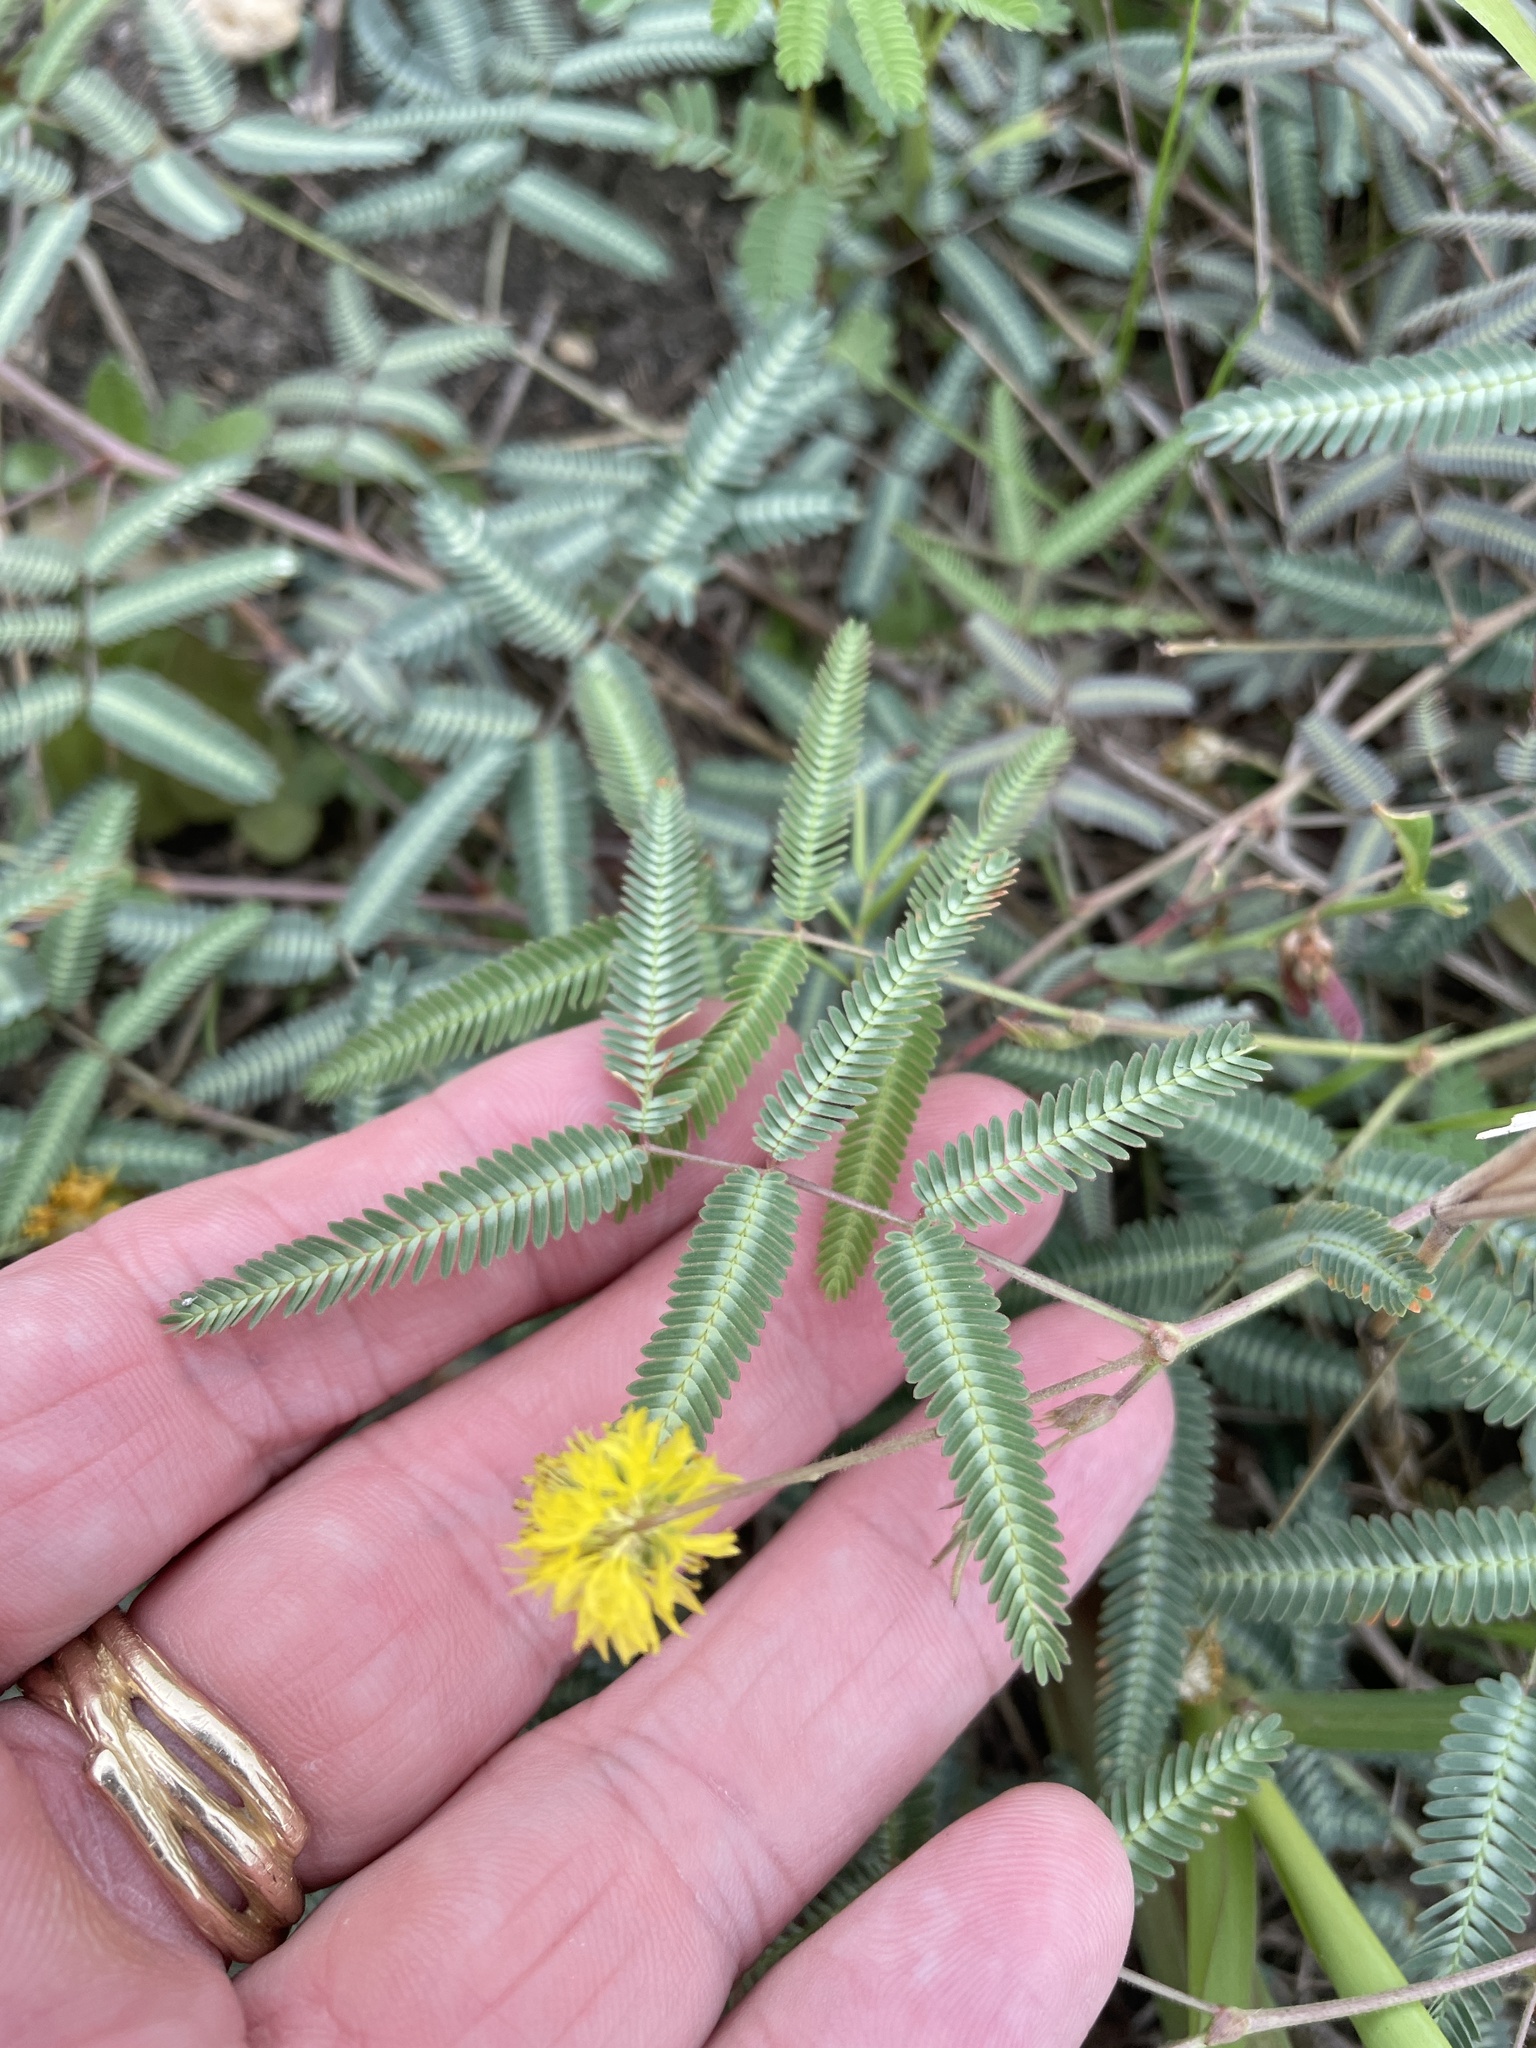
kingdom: Plantae
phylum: Tracheophyta
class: Magnoliopsida
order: Fabales
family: Fabaceae
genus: Neptunia
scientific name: Neptunia pubescens
